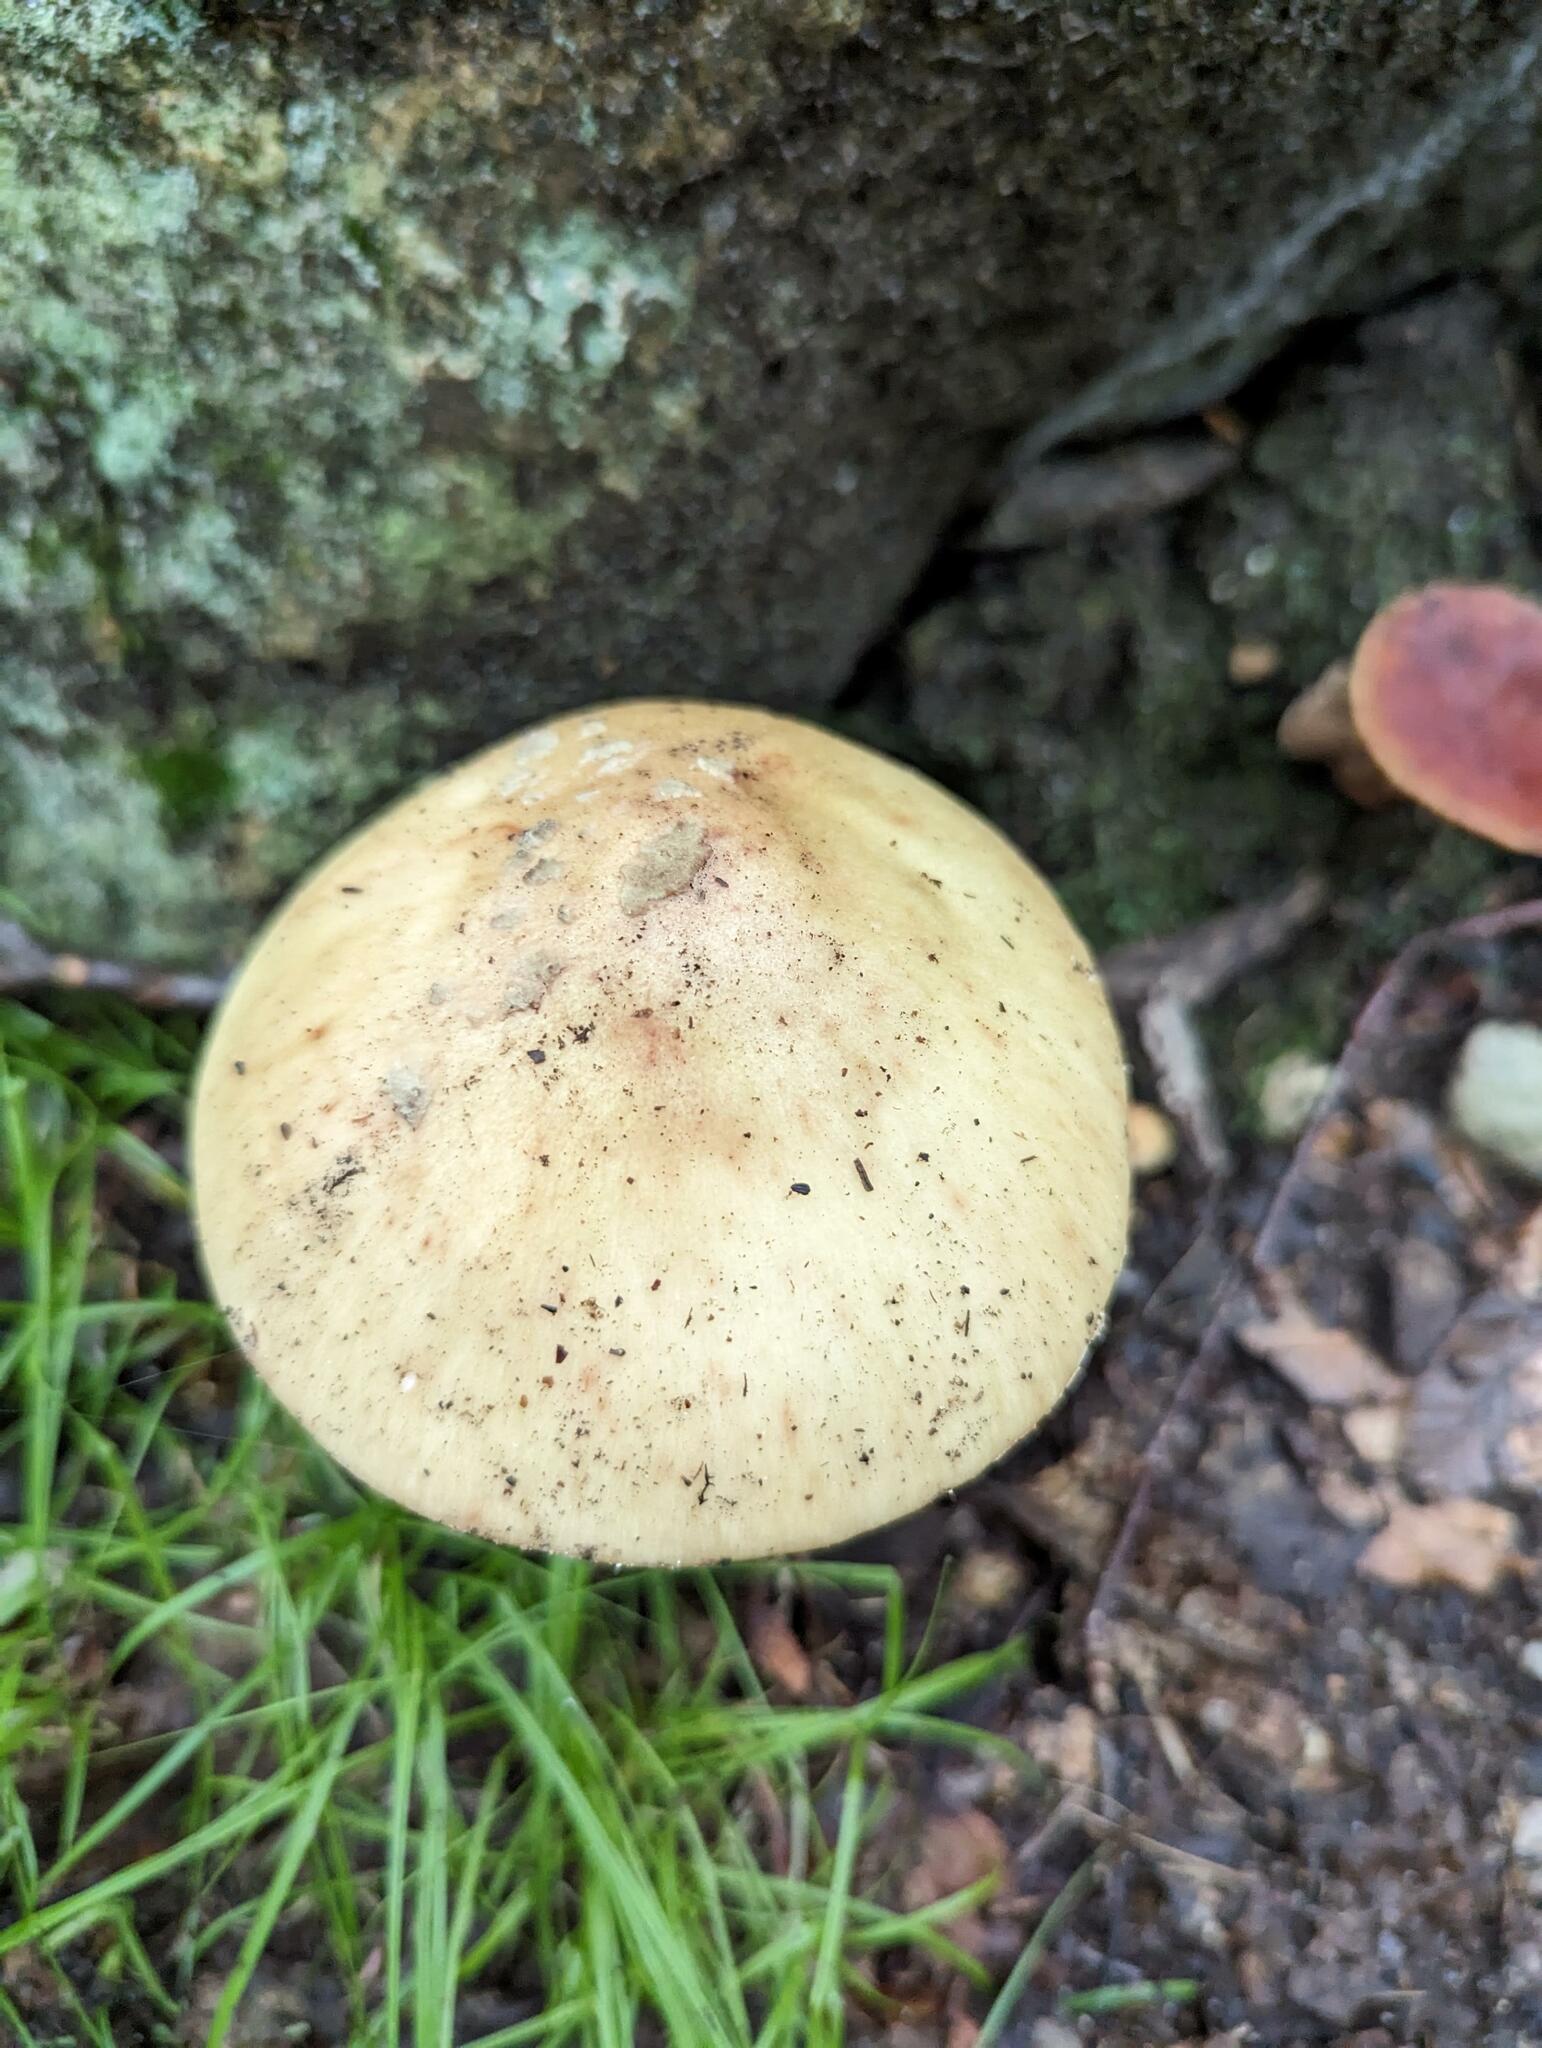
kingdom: Fungi
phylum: Basidiomycota
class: Agaricomycetes
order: Agaricales
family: Amanitaceae
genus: Amanita
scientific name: Amanita flavorubens
